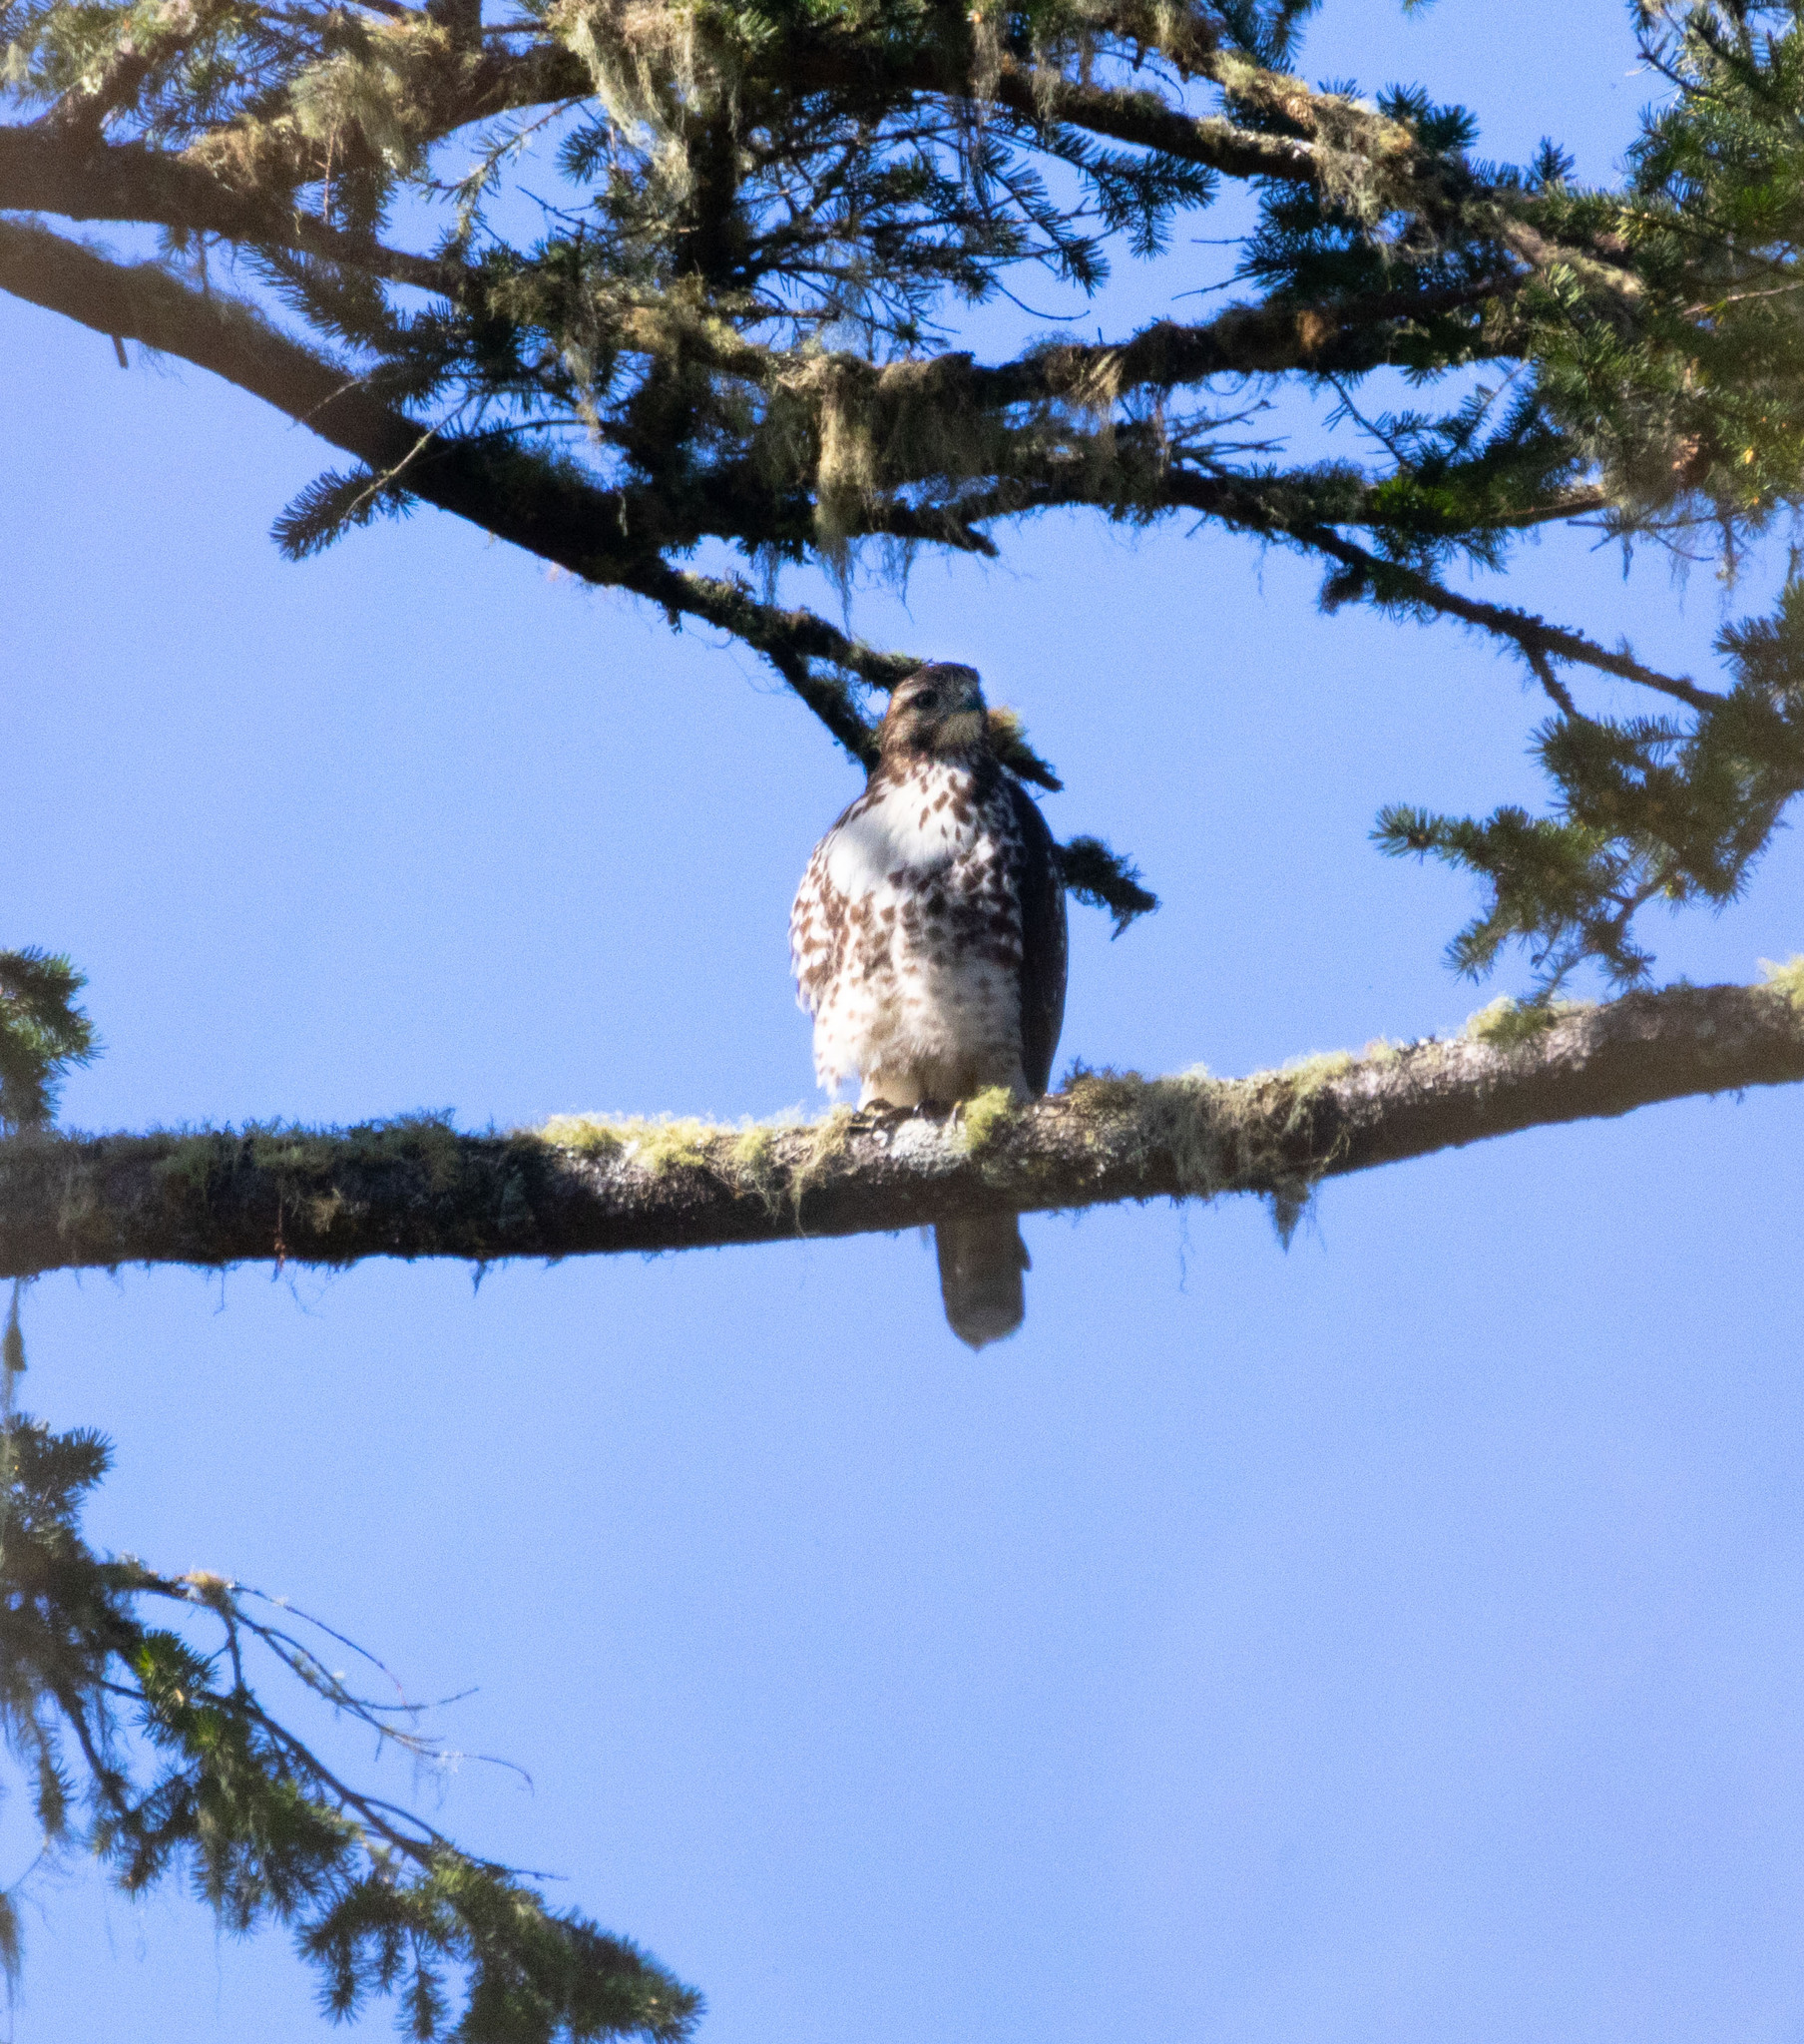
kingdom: Animalia
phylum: Chordata
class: Aves
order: Accipitriformes
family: Accipitridae
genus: Buteo
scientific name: Buteo jamaicensis
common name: Red-tailed hawk
